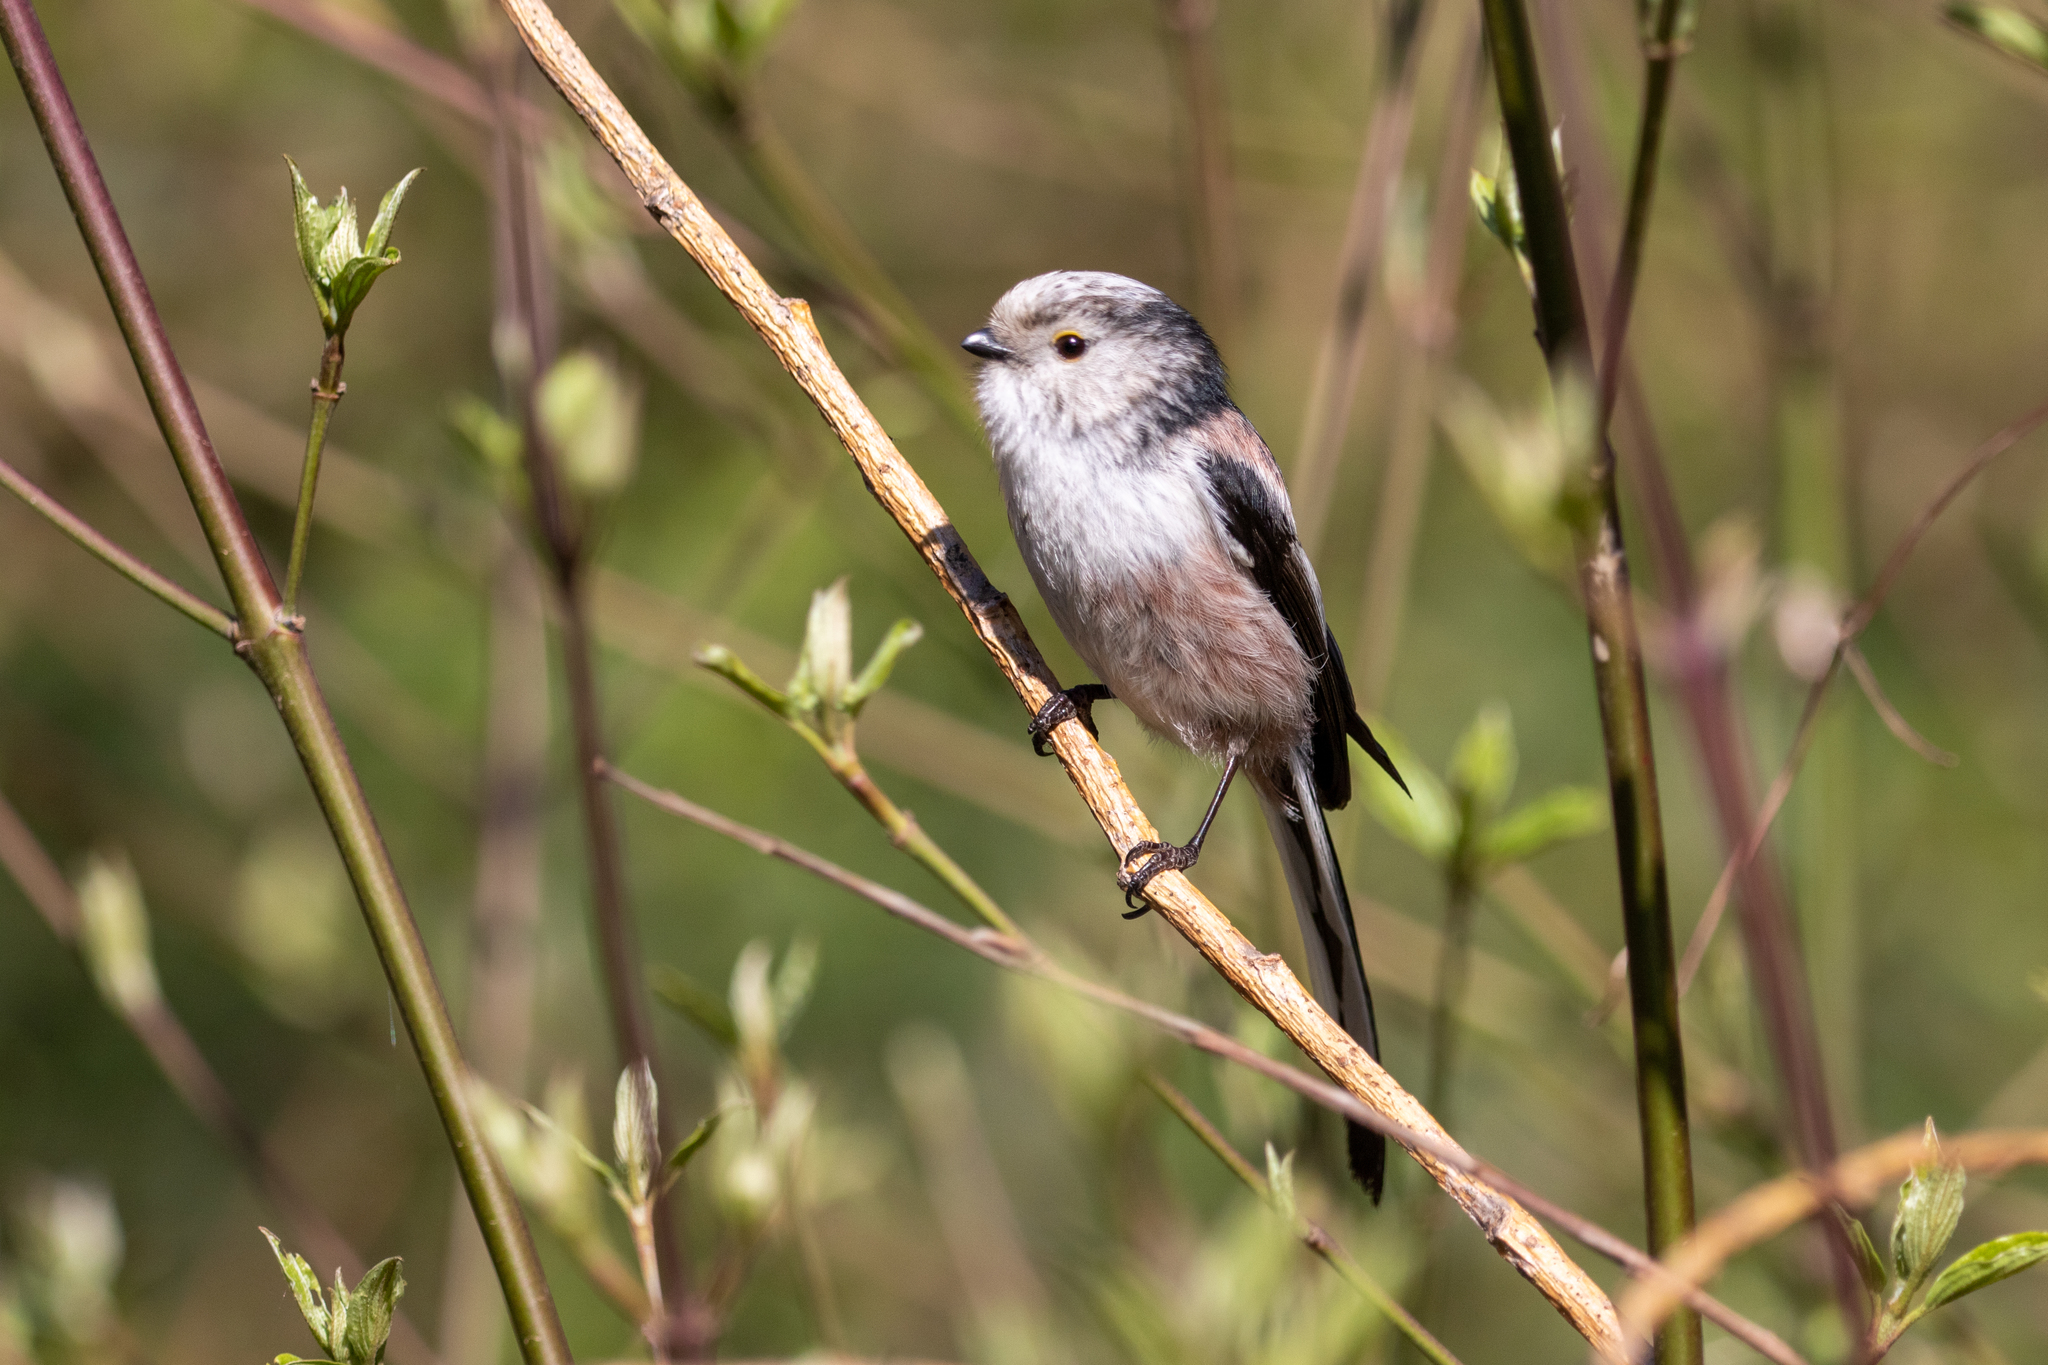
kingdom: Animalia
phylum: Chordata
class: Aves
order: Passeriformes
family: Aegithalidae
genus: Aegithalos
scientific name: Aegithalos caudatus
